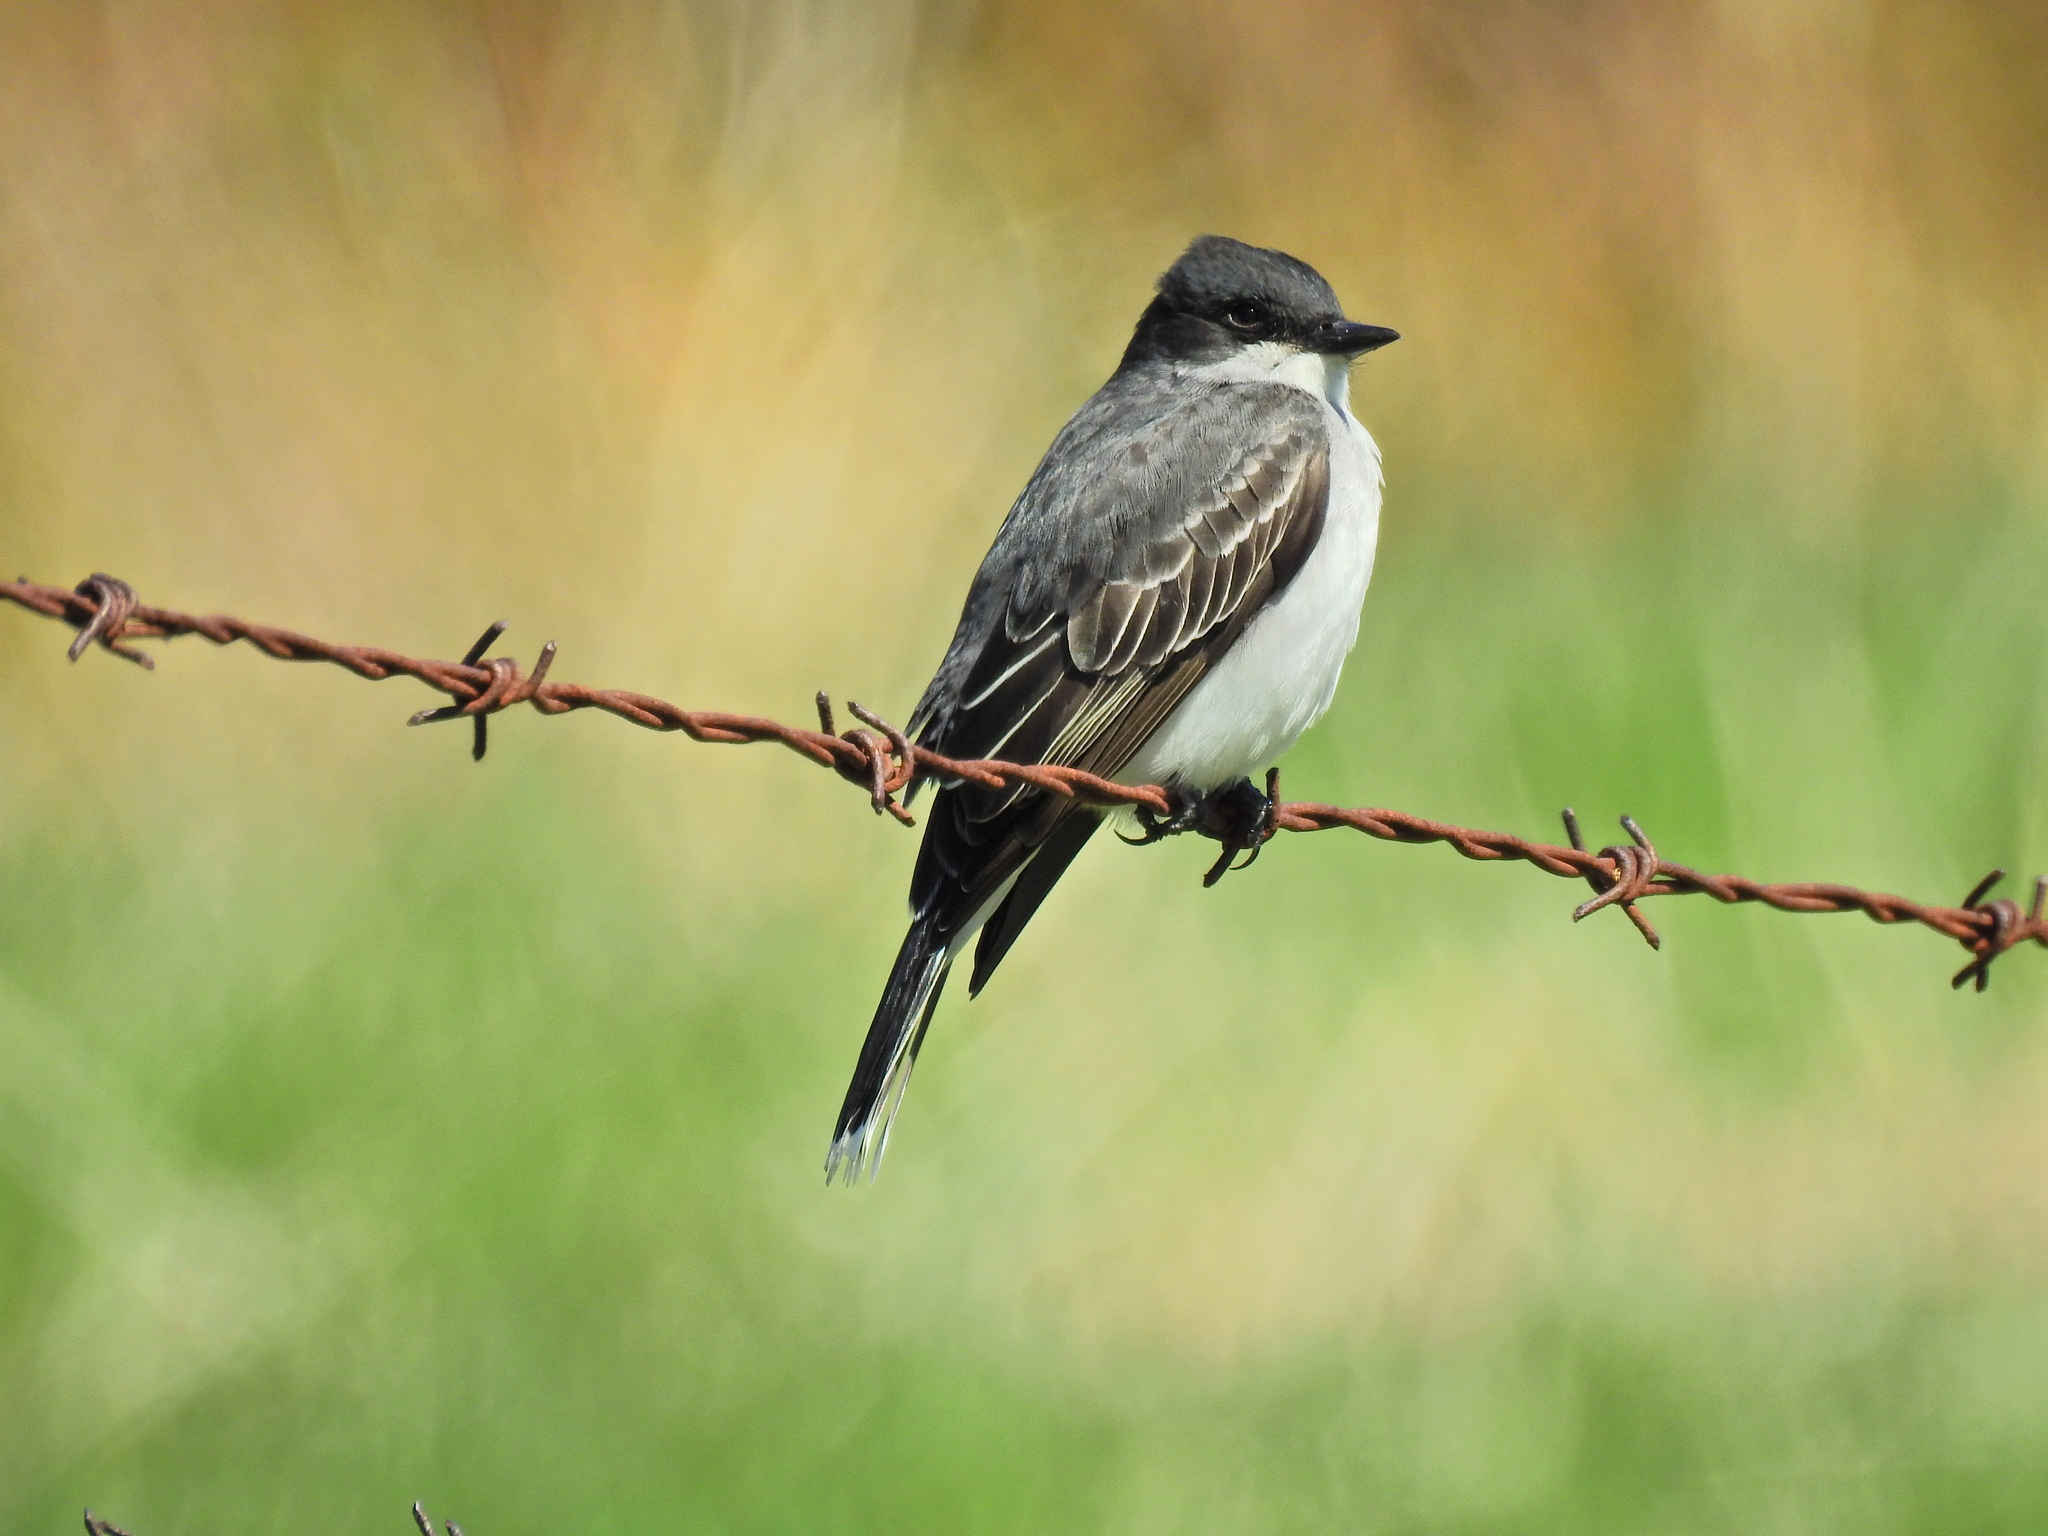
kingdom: Animalia
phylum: Chordata
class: Aves
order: Passeriformes
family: Tyrannidae
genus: Tyrannus
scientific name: Tyrannus tyrannus
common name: Eastern kingbird
